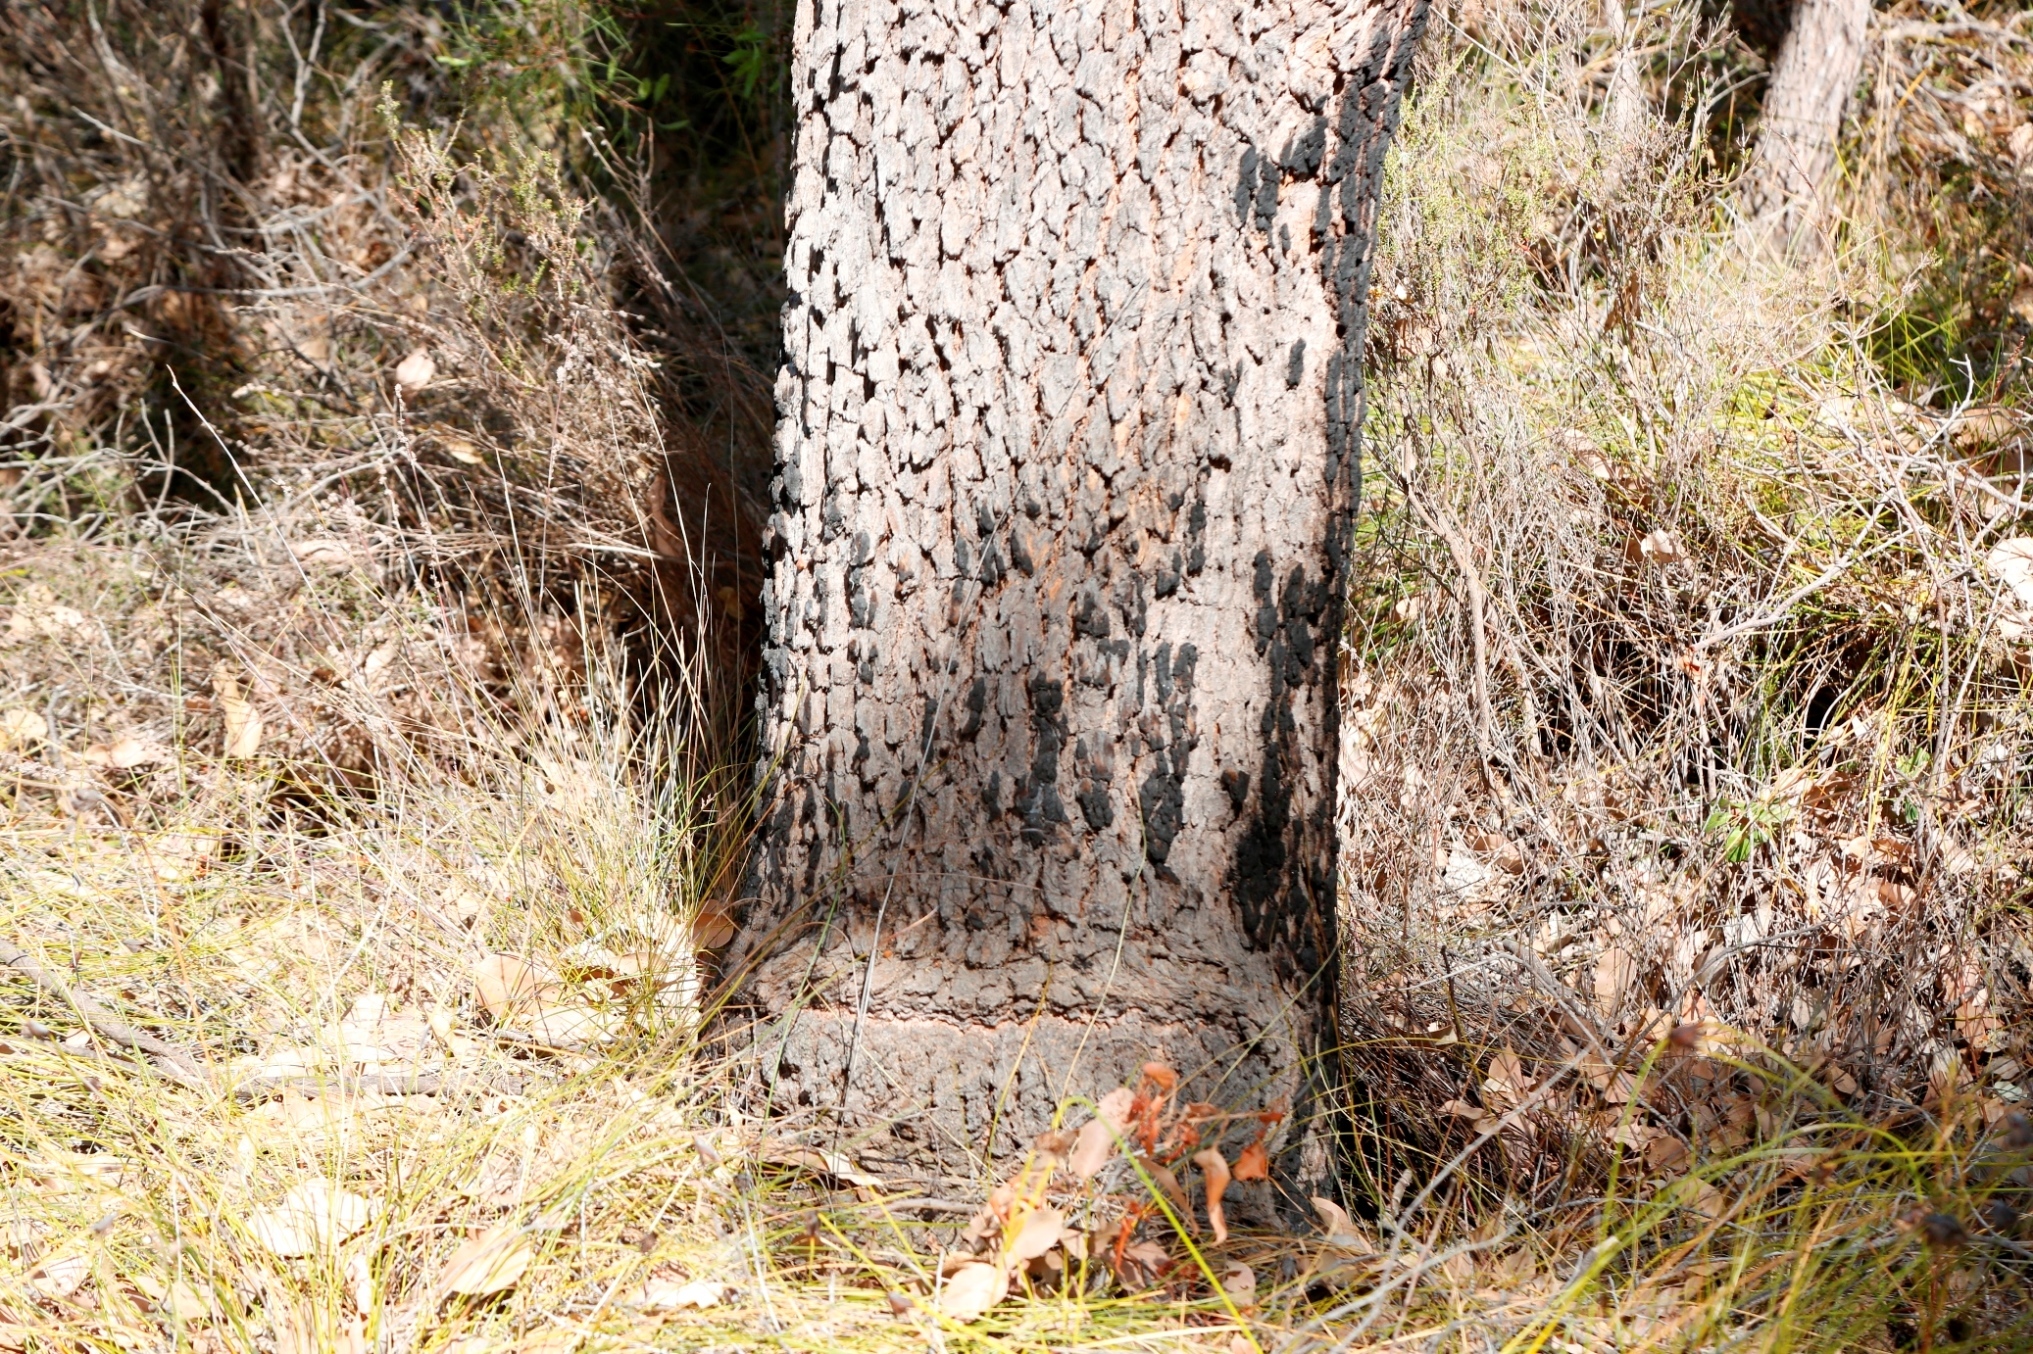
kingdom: Plantae
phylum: Tracheophyta
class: Magnoliopsida
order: Myrtales
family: Myrtaceae
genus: Corymbia
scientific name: Corymbia calophylla
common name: Marri
